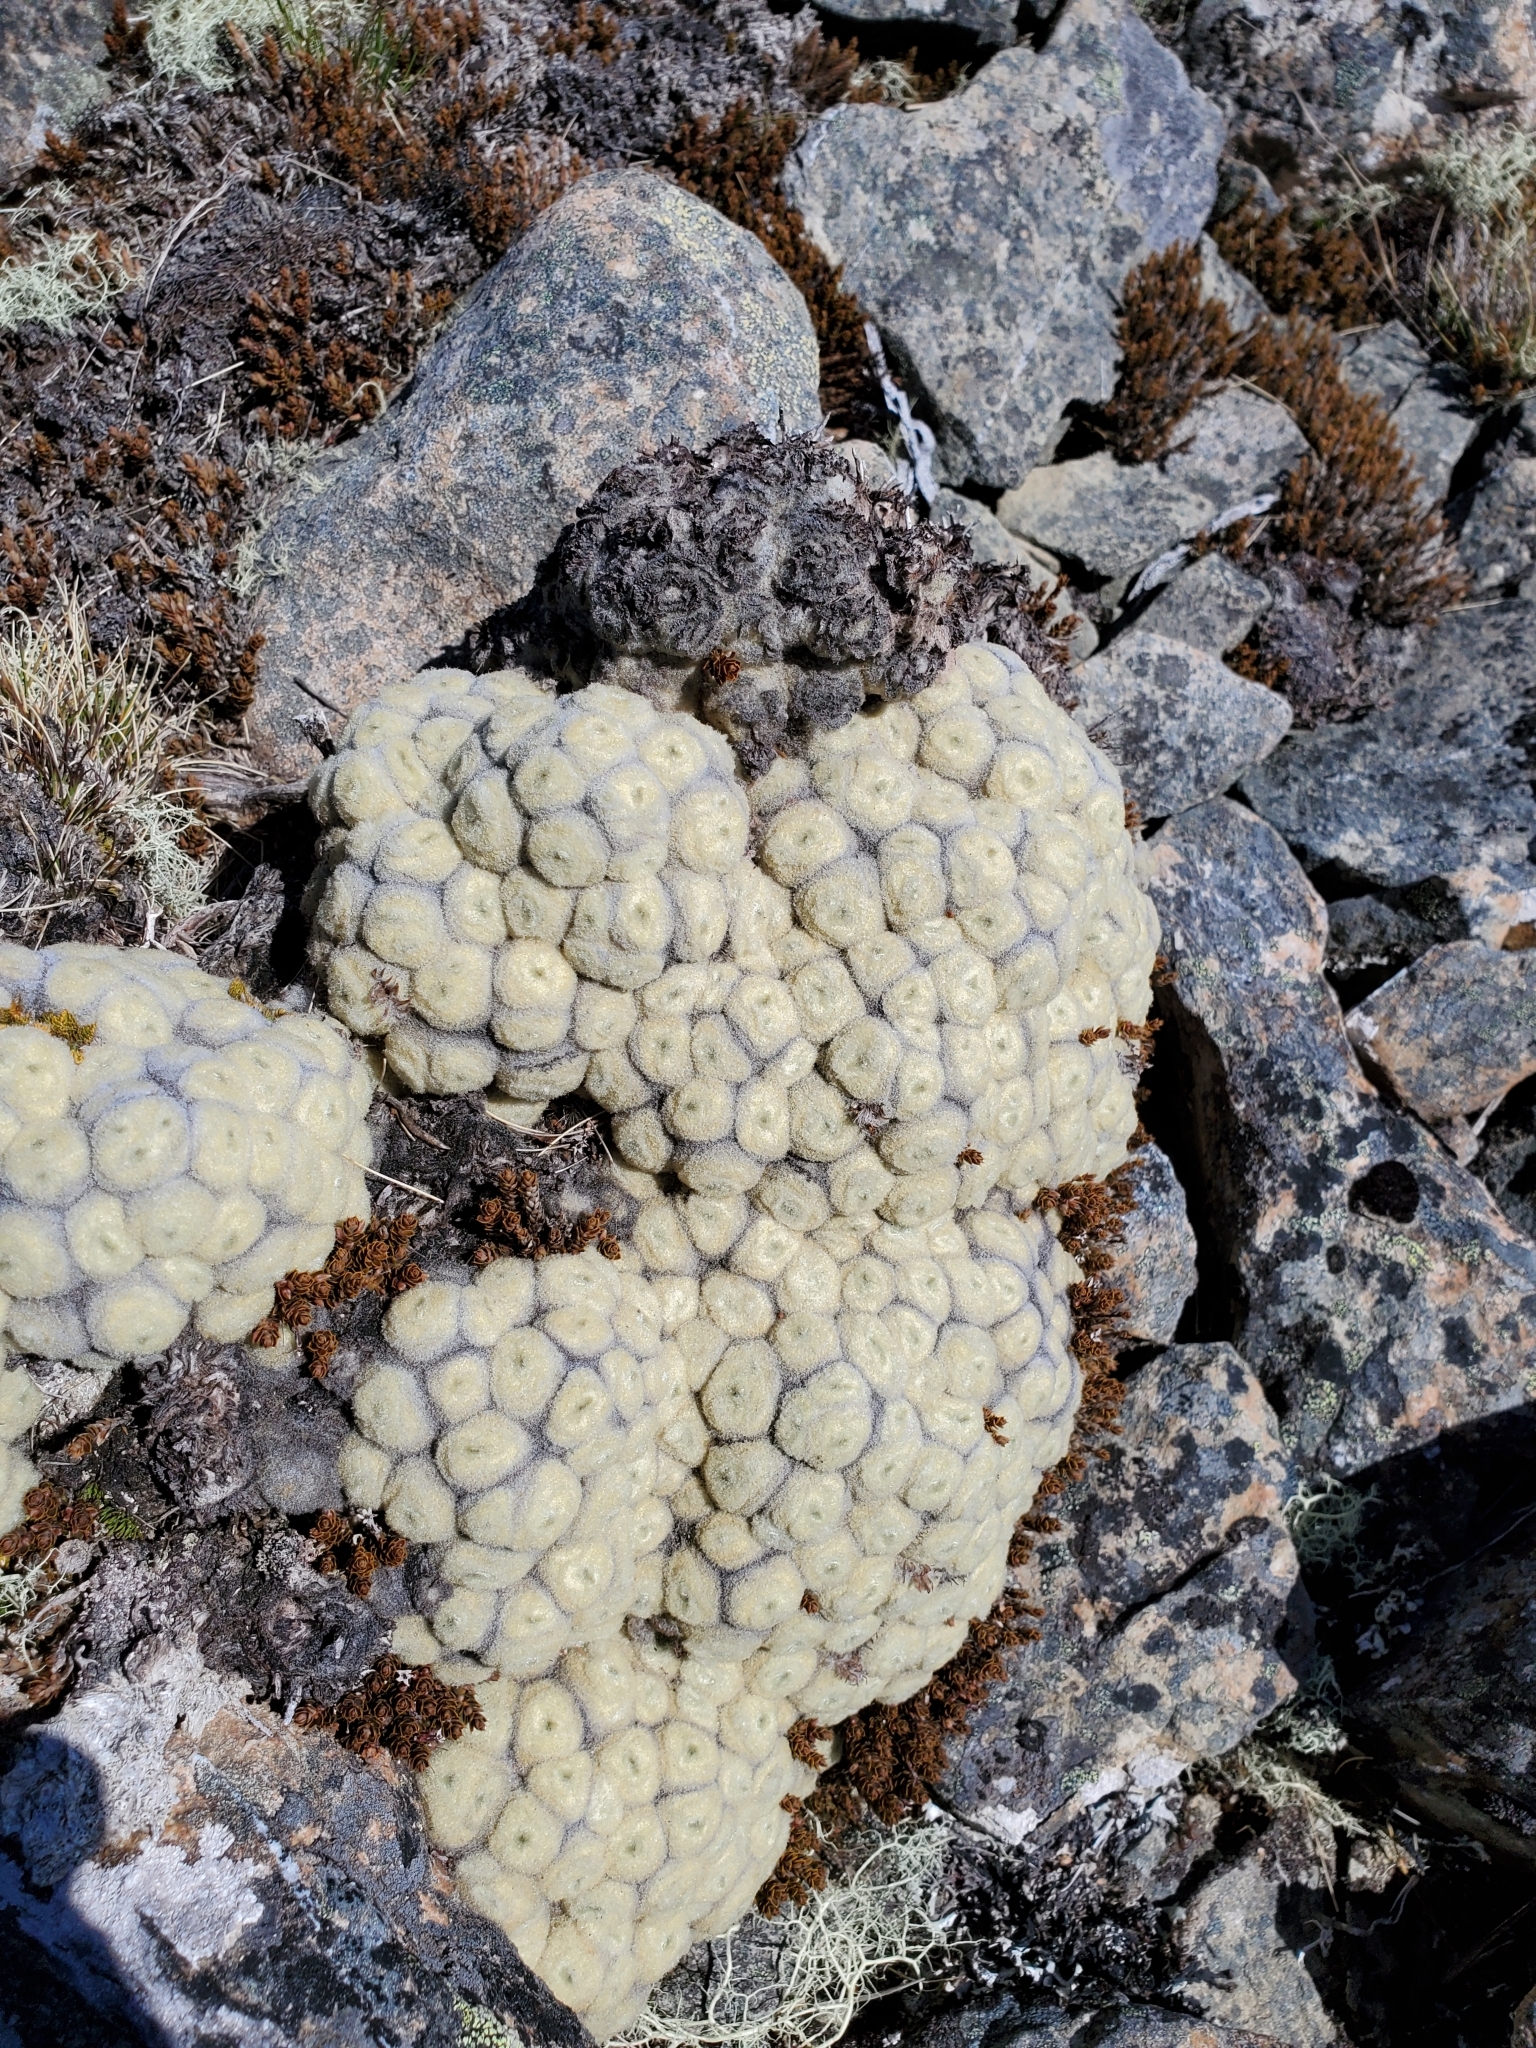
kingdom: Plantae
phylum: Tracheophyta
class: Magnoliopsida
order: Asterales
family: Asteraceae
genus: Haastia
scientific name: Haastia pulvinaris
